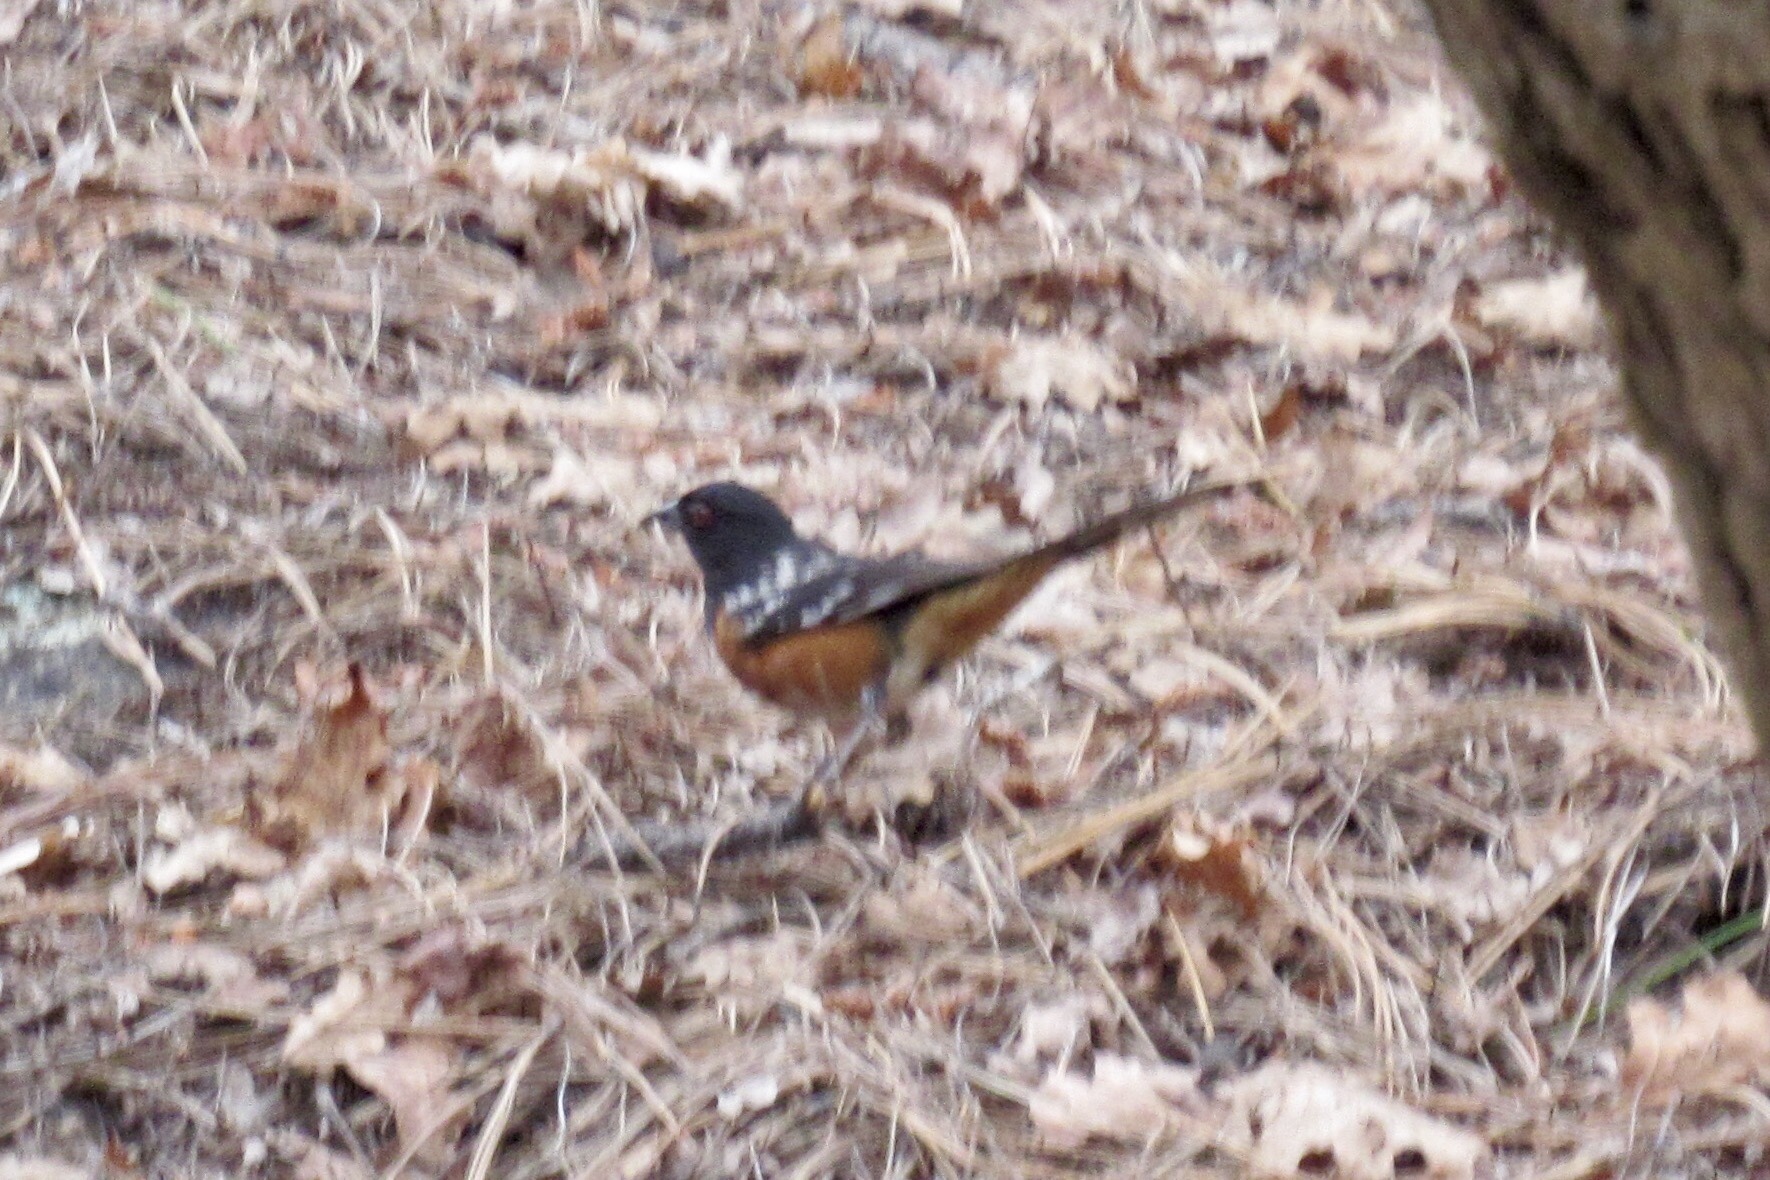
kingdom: Animalia
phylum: Chordata
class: Aves
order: Passeriformes
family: Passerellidae
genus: Pipilo
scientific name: Pipilo maculatus
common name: Spotted towhee
